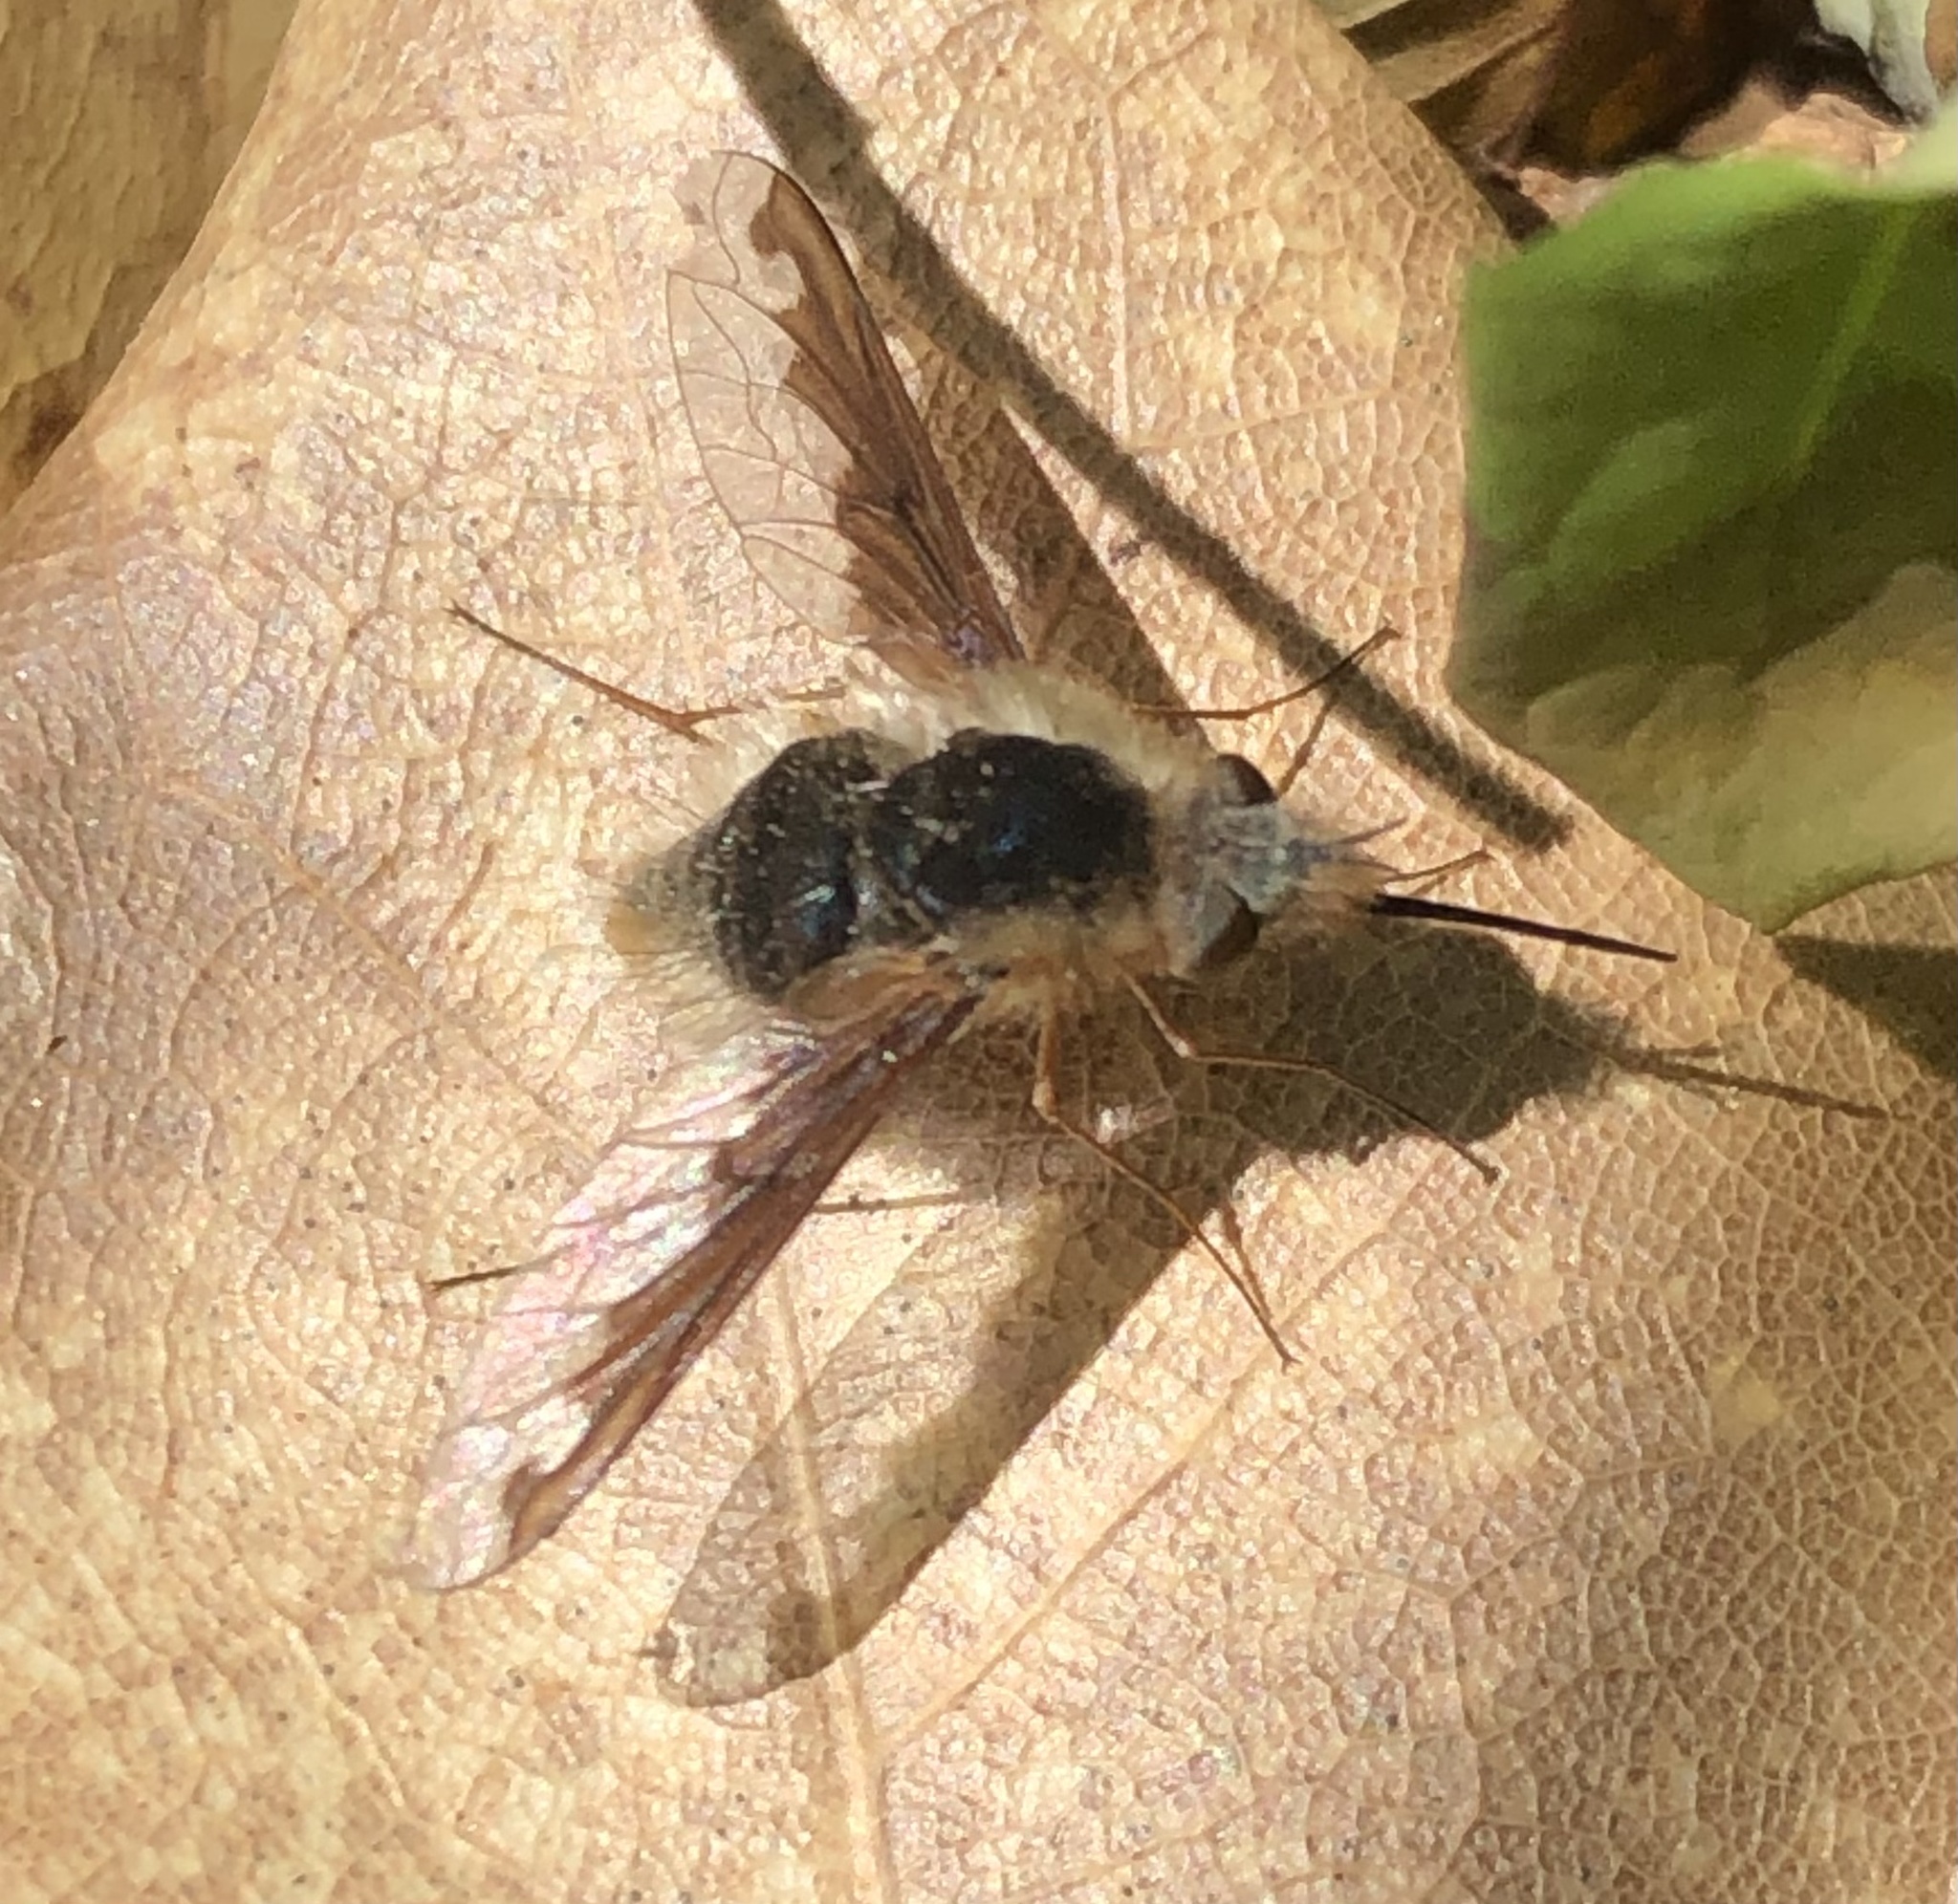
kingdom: Animalia
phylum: Arthropoda
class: Insecta
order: Diptera
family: Bombyliidae
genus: Bombylius
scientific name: Bombylius major
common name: Bee fly
